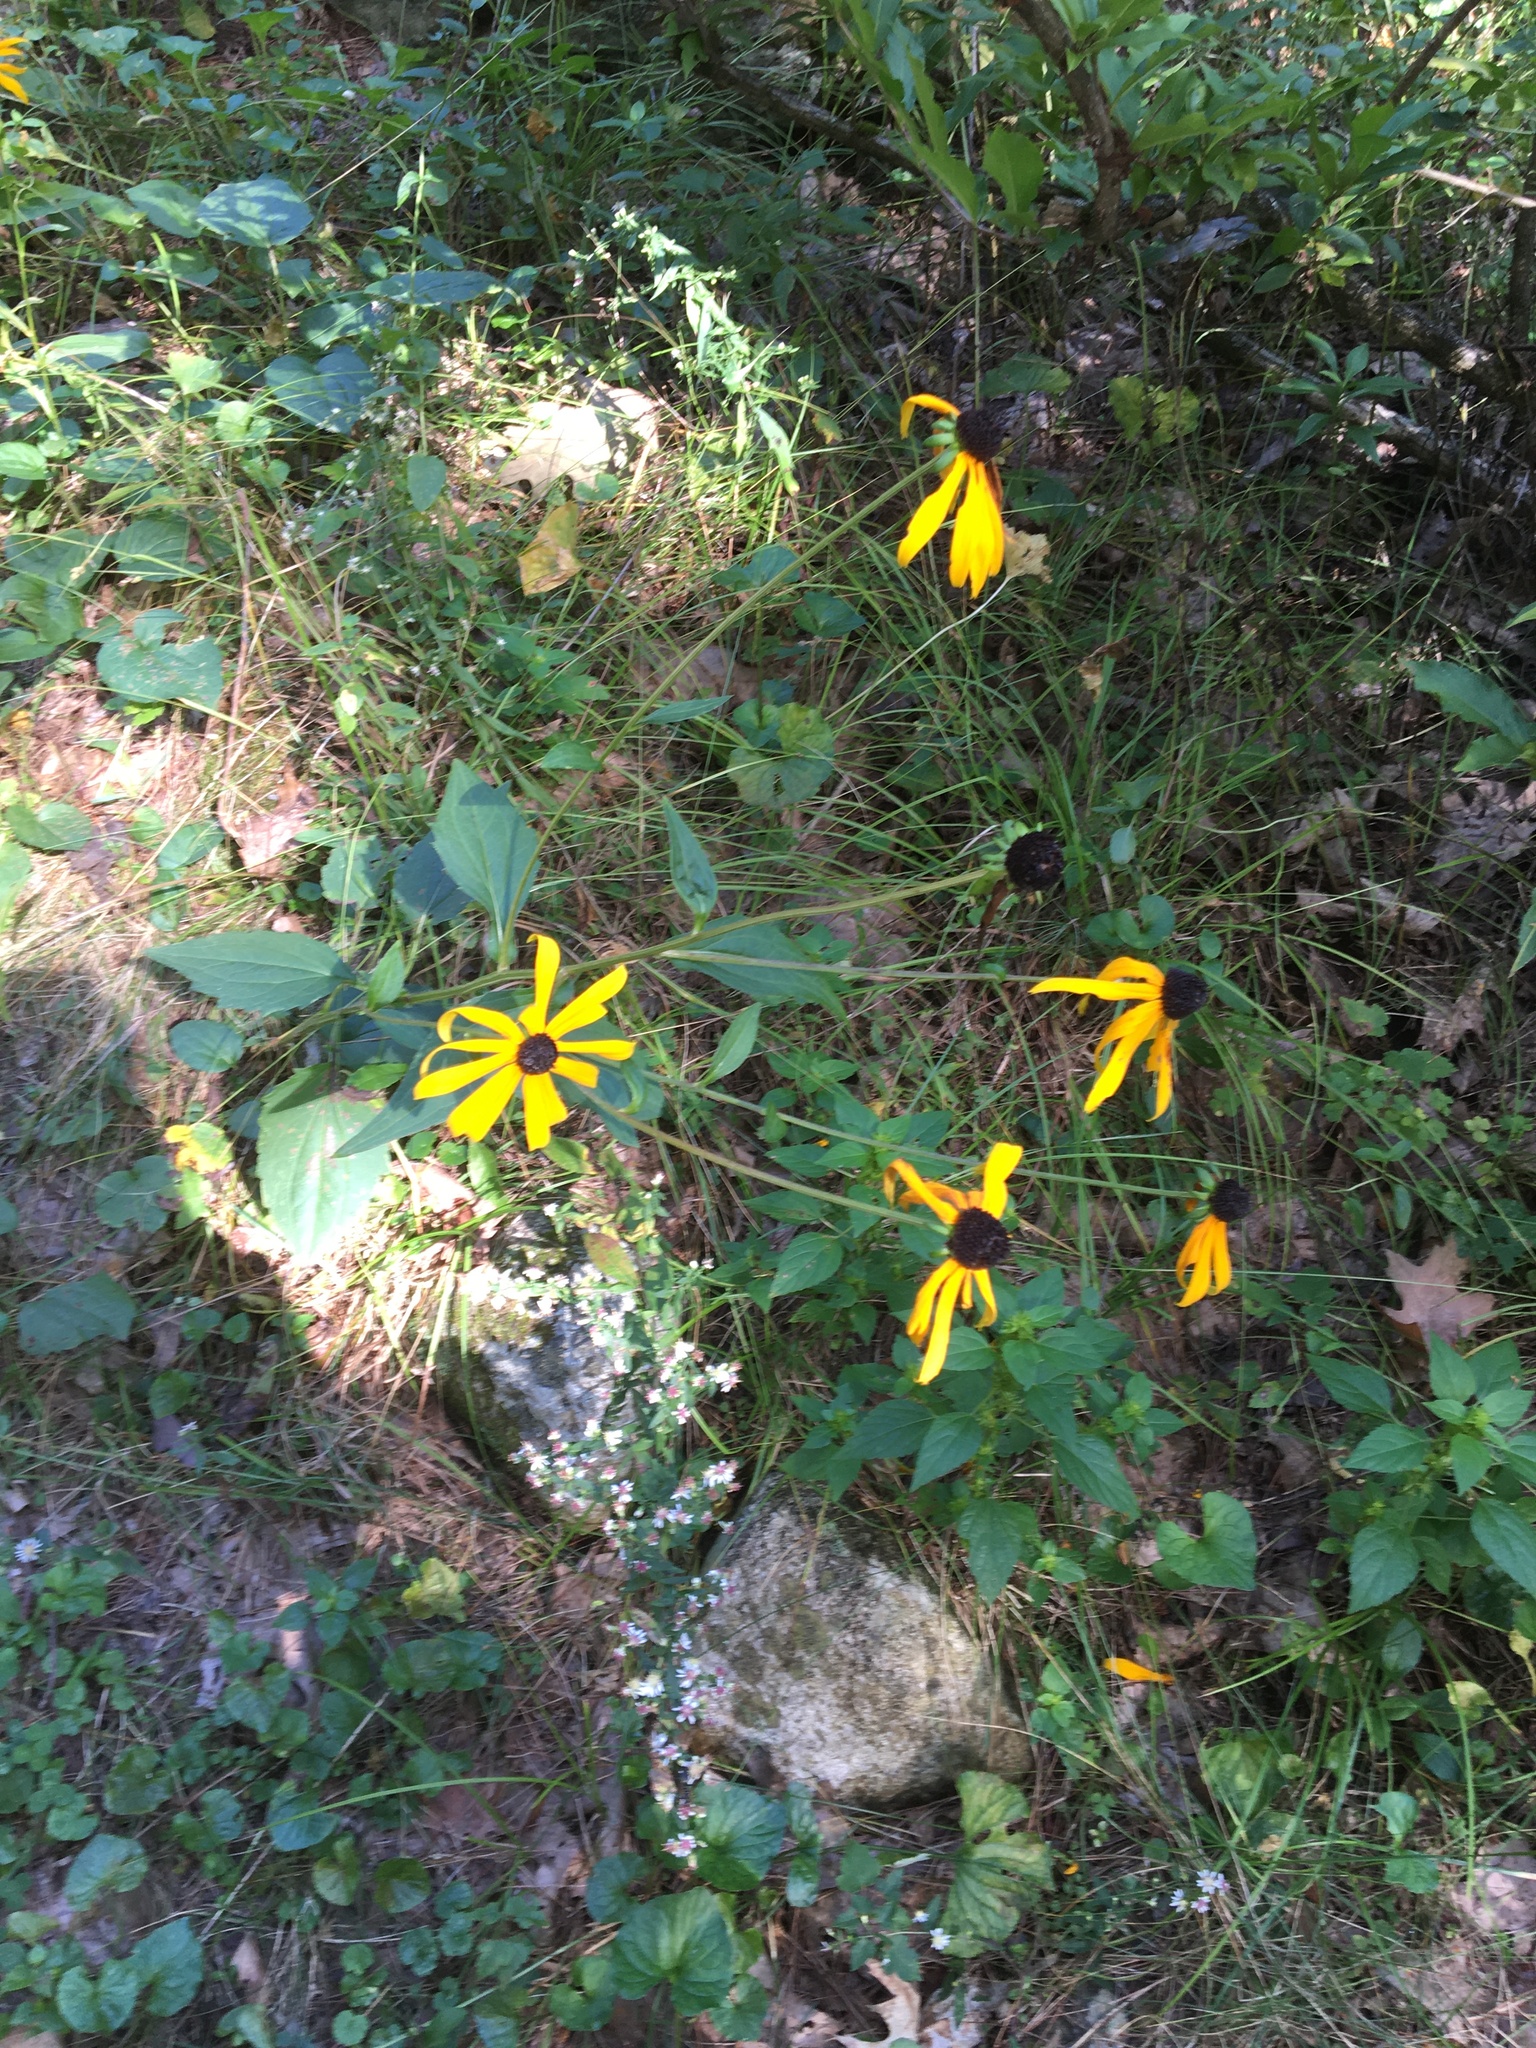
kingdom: Plantae
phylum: Tracheophyta
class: Magnoliopsida
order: Asterales
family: Asteraceae
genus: Rudbeckia
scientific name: Rudbeckia fulgida
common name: Perennial coneflower
